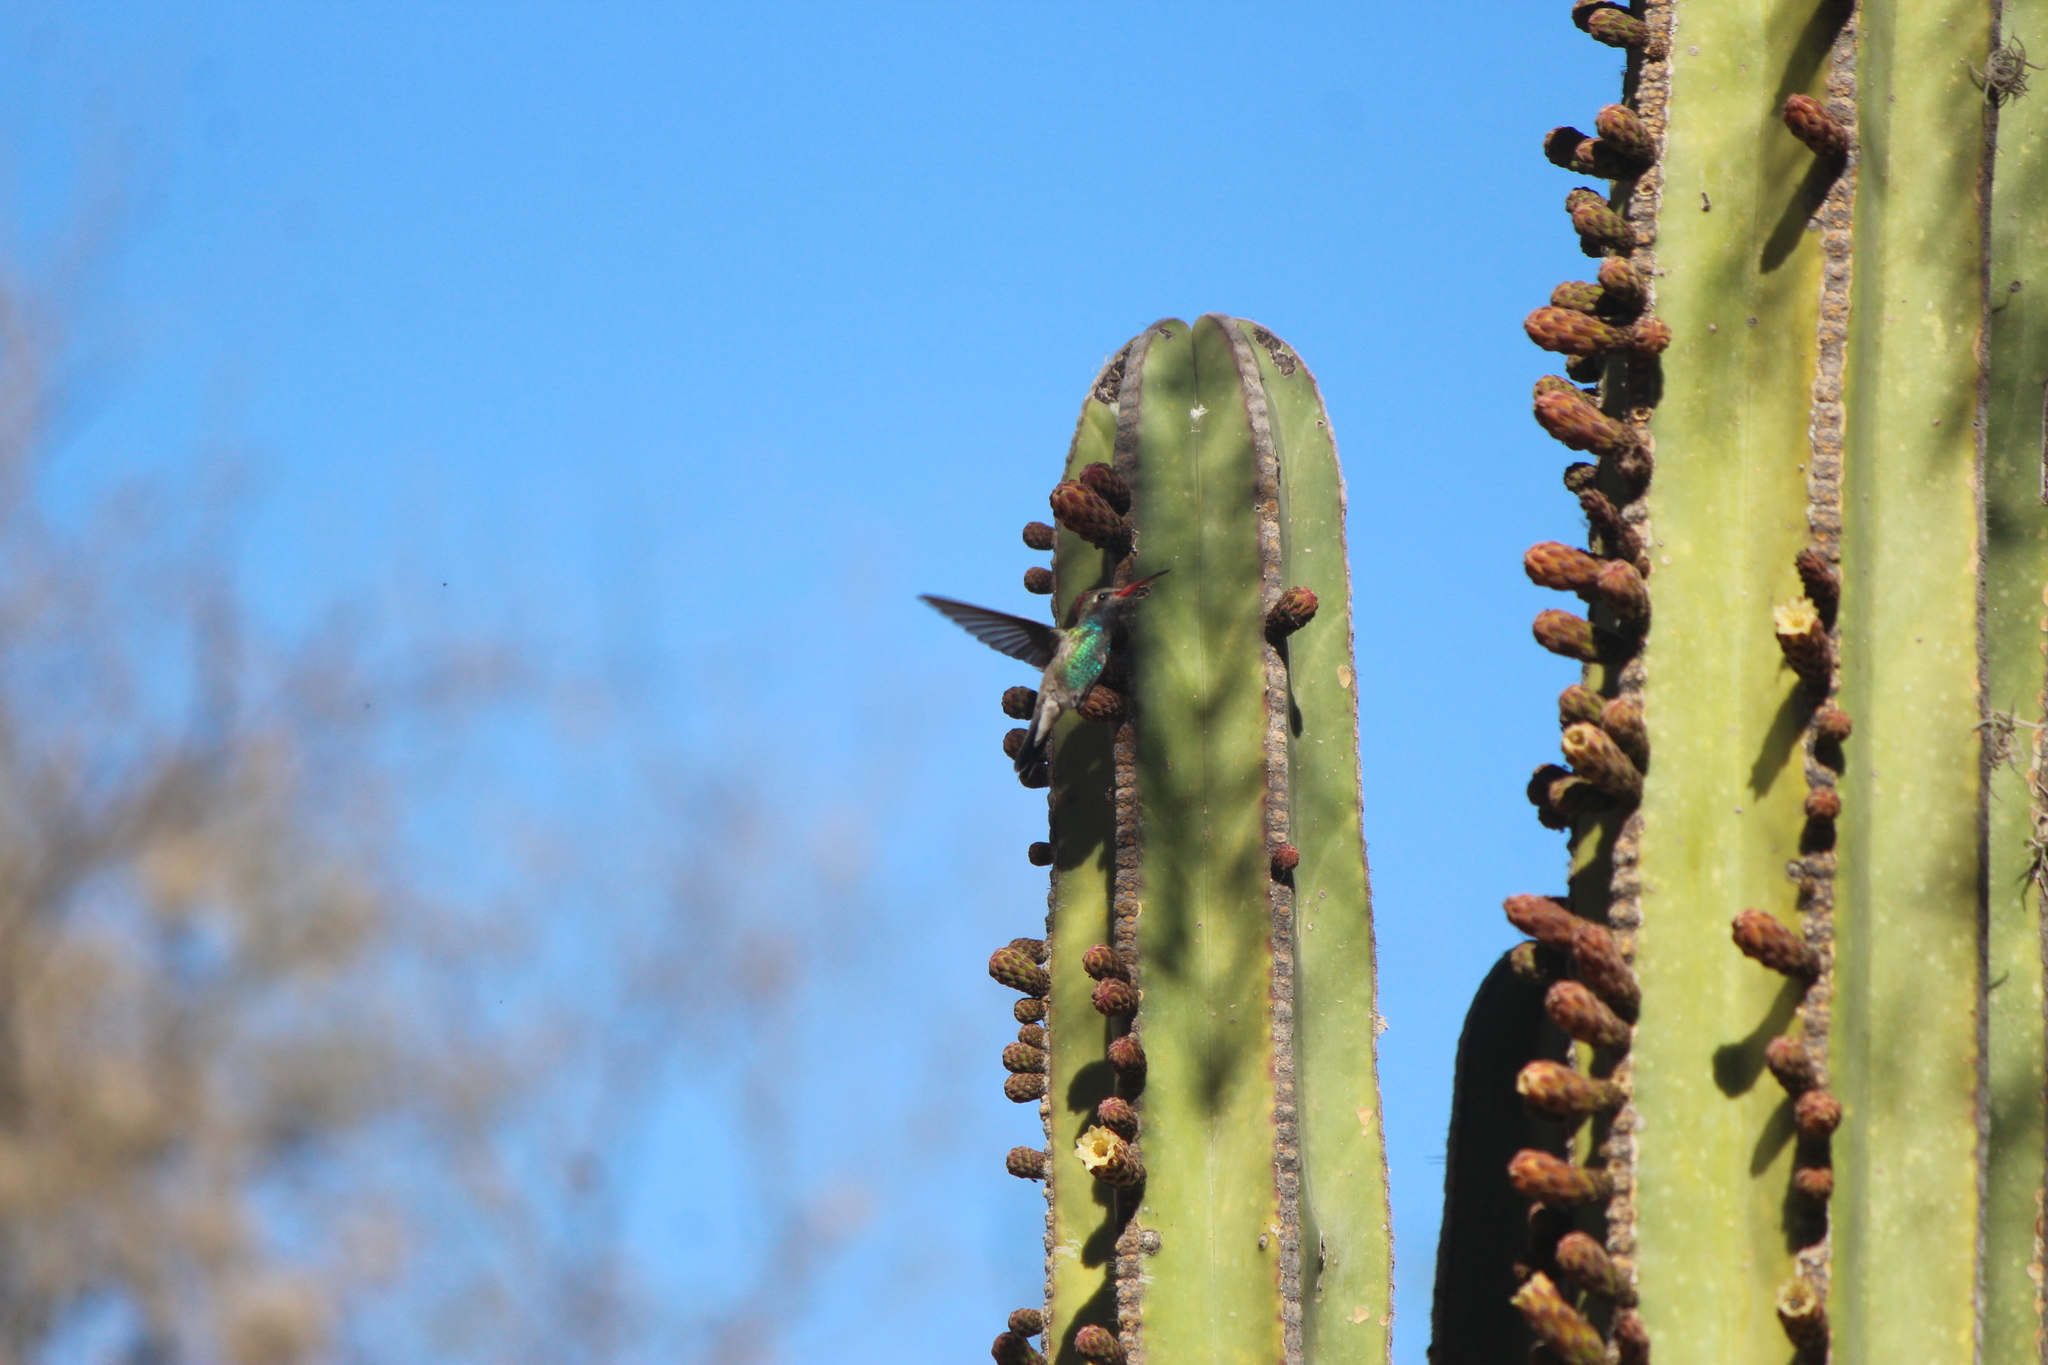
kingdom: Animalia
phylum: Chordata
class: Aves
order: Apodiformes
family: Trochilidae
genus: Cynanthus
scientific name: Cynanthus latirostris
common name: Broad-billed hummingbird
